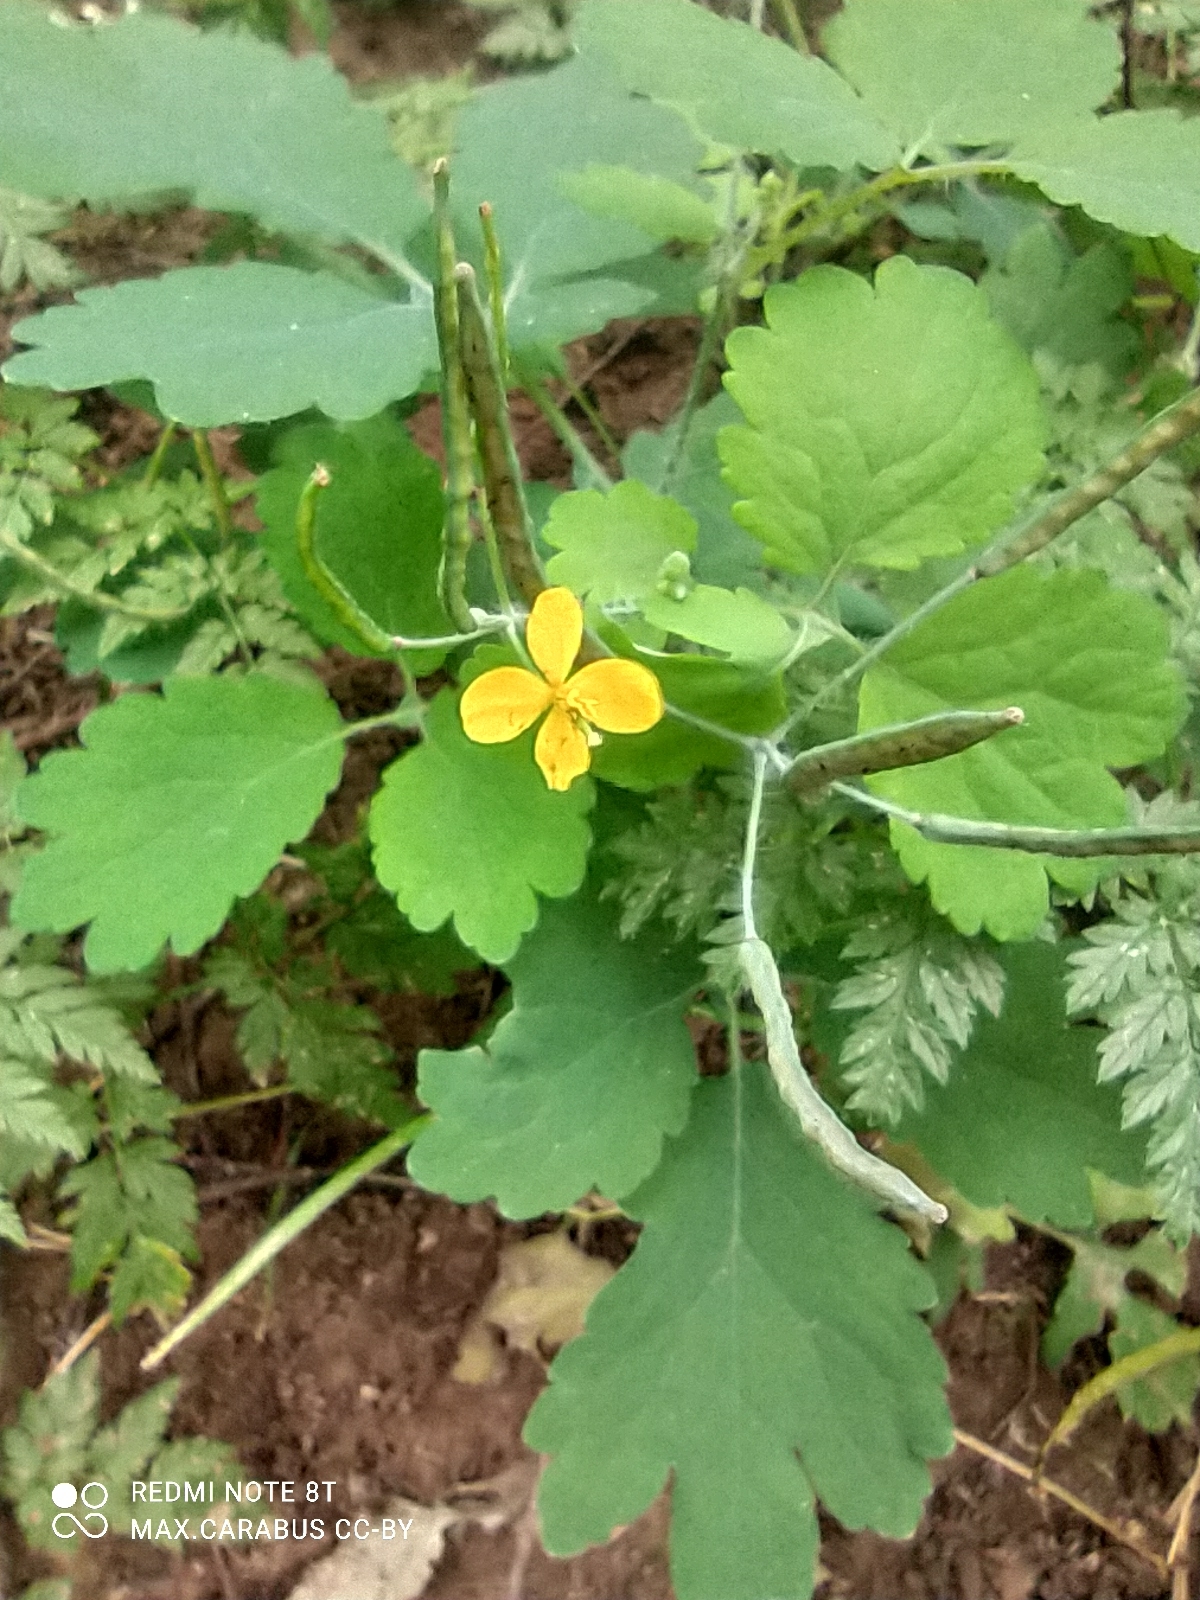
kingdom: Plantae
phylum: Tracheophyta
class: Magnoliopsida
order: Ranunculales
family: Papaveraceae
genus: Chelidonium
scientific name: Chelidonium majus
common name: Greater celandine
